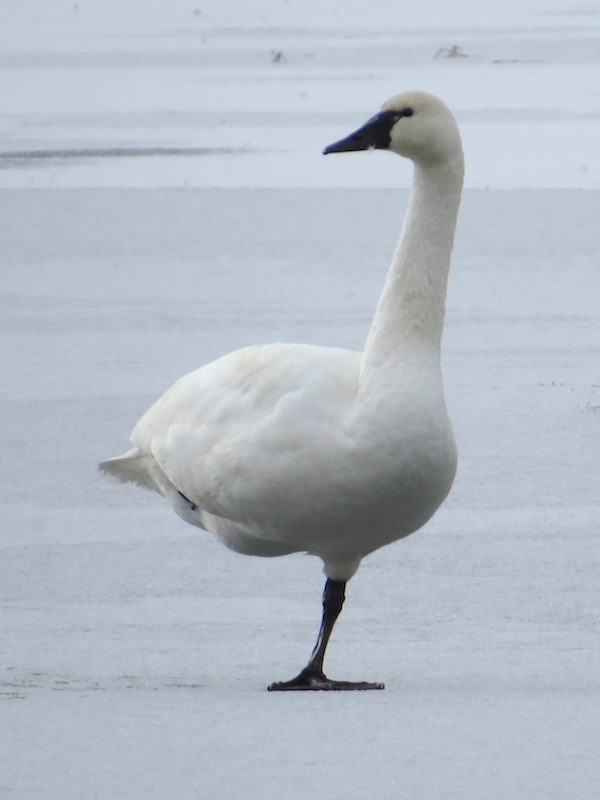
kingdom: Animalia
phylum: Chordata
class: Aves
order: Anseriformes
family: Anatidae
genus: Cygnus
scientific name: Cygnus columbianus
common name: Tundra swan
